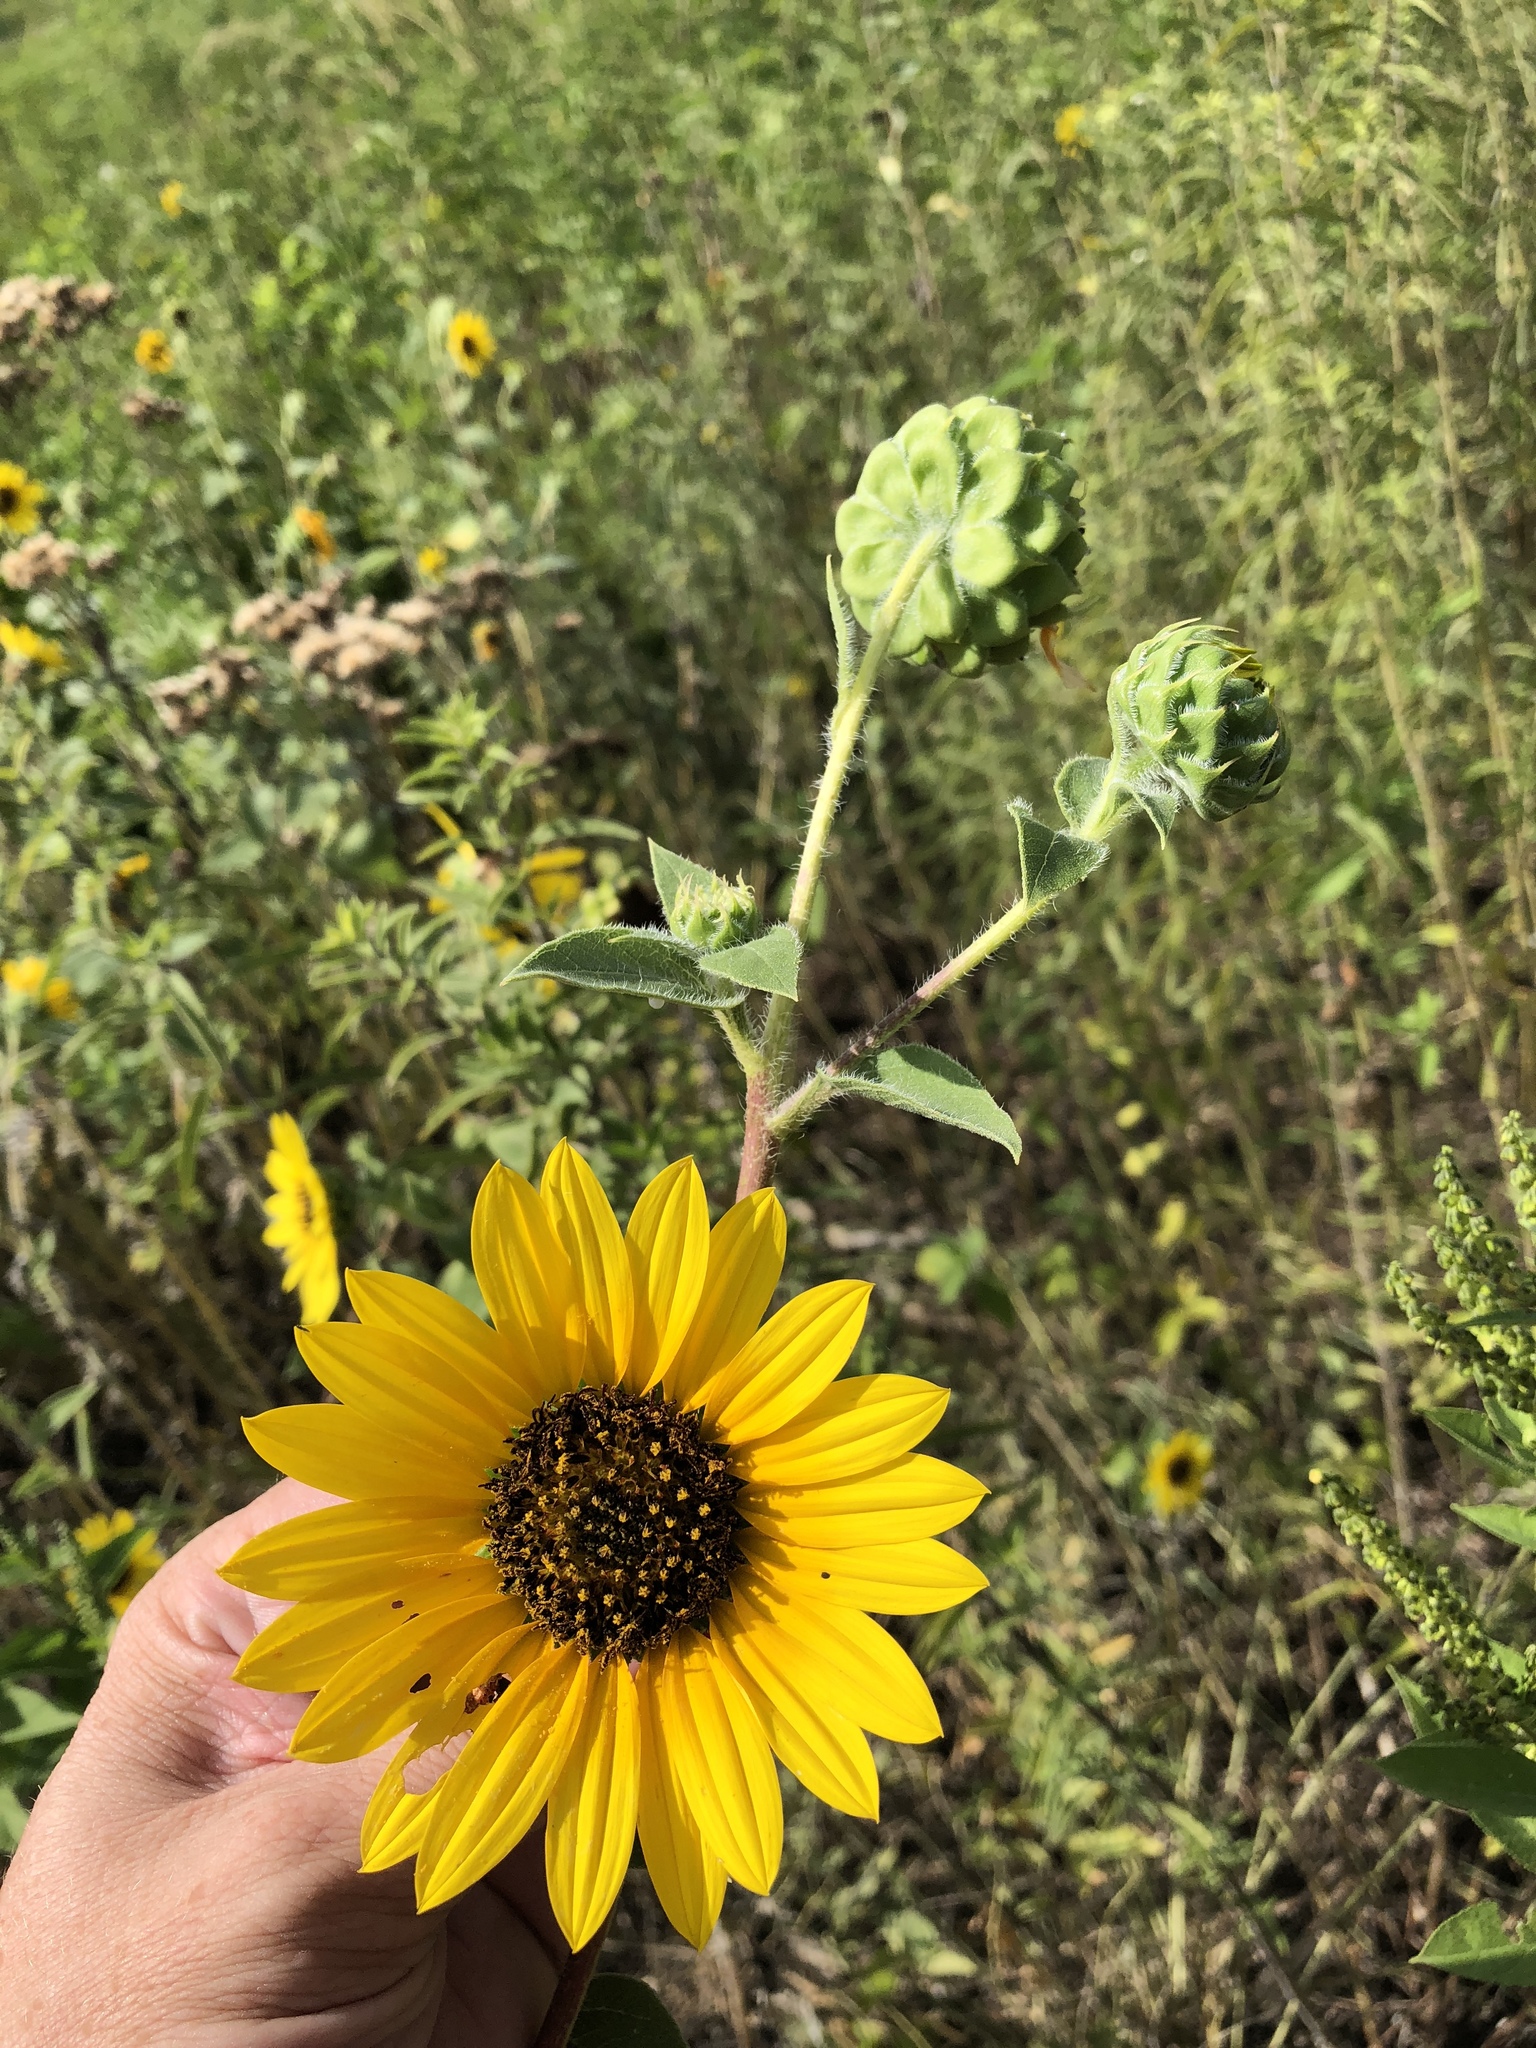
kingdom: Plantae
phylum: Tracheophyta
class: Magnoliopsida
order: Asterales
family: Asteraceae
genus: Helianthus
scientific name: Helianthus annuus
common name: Sunflower
